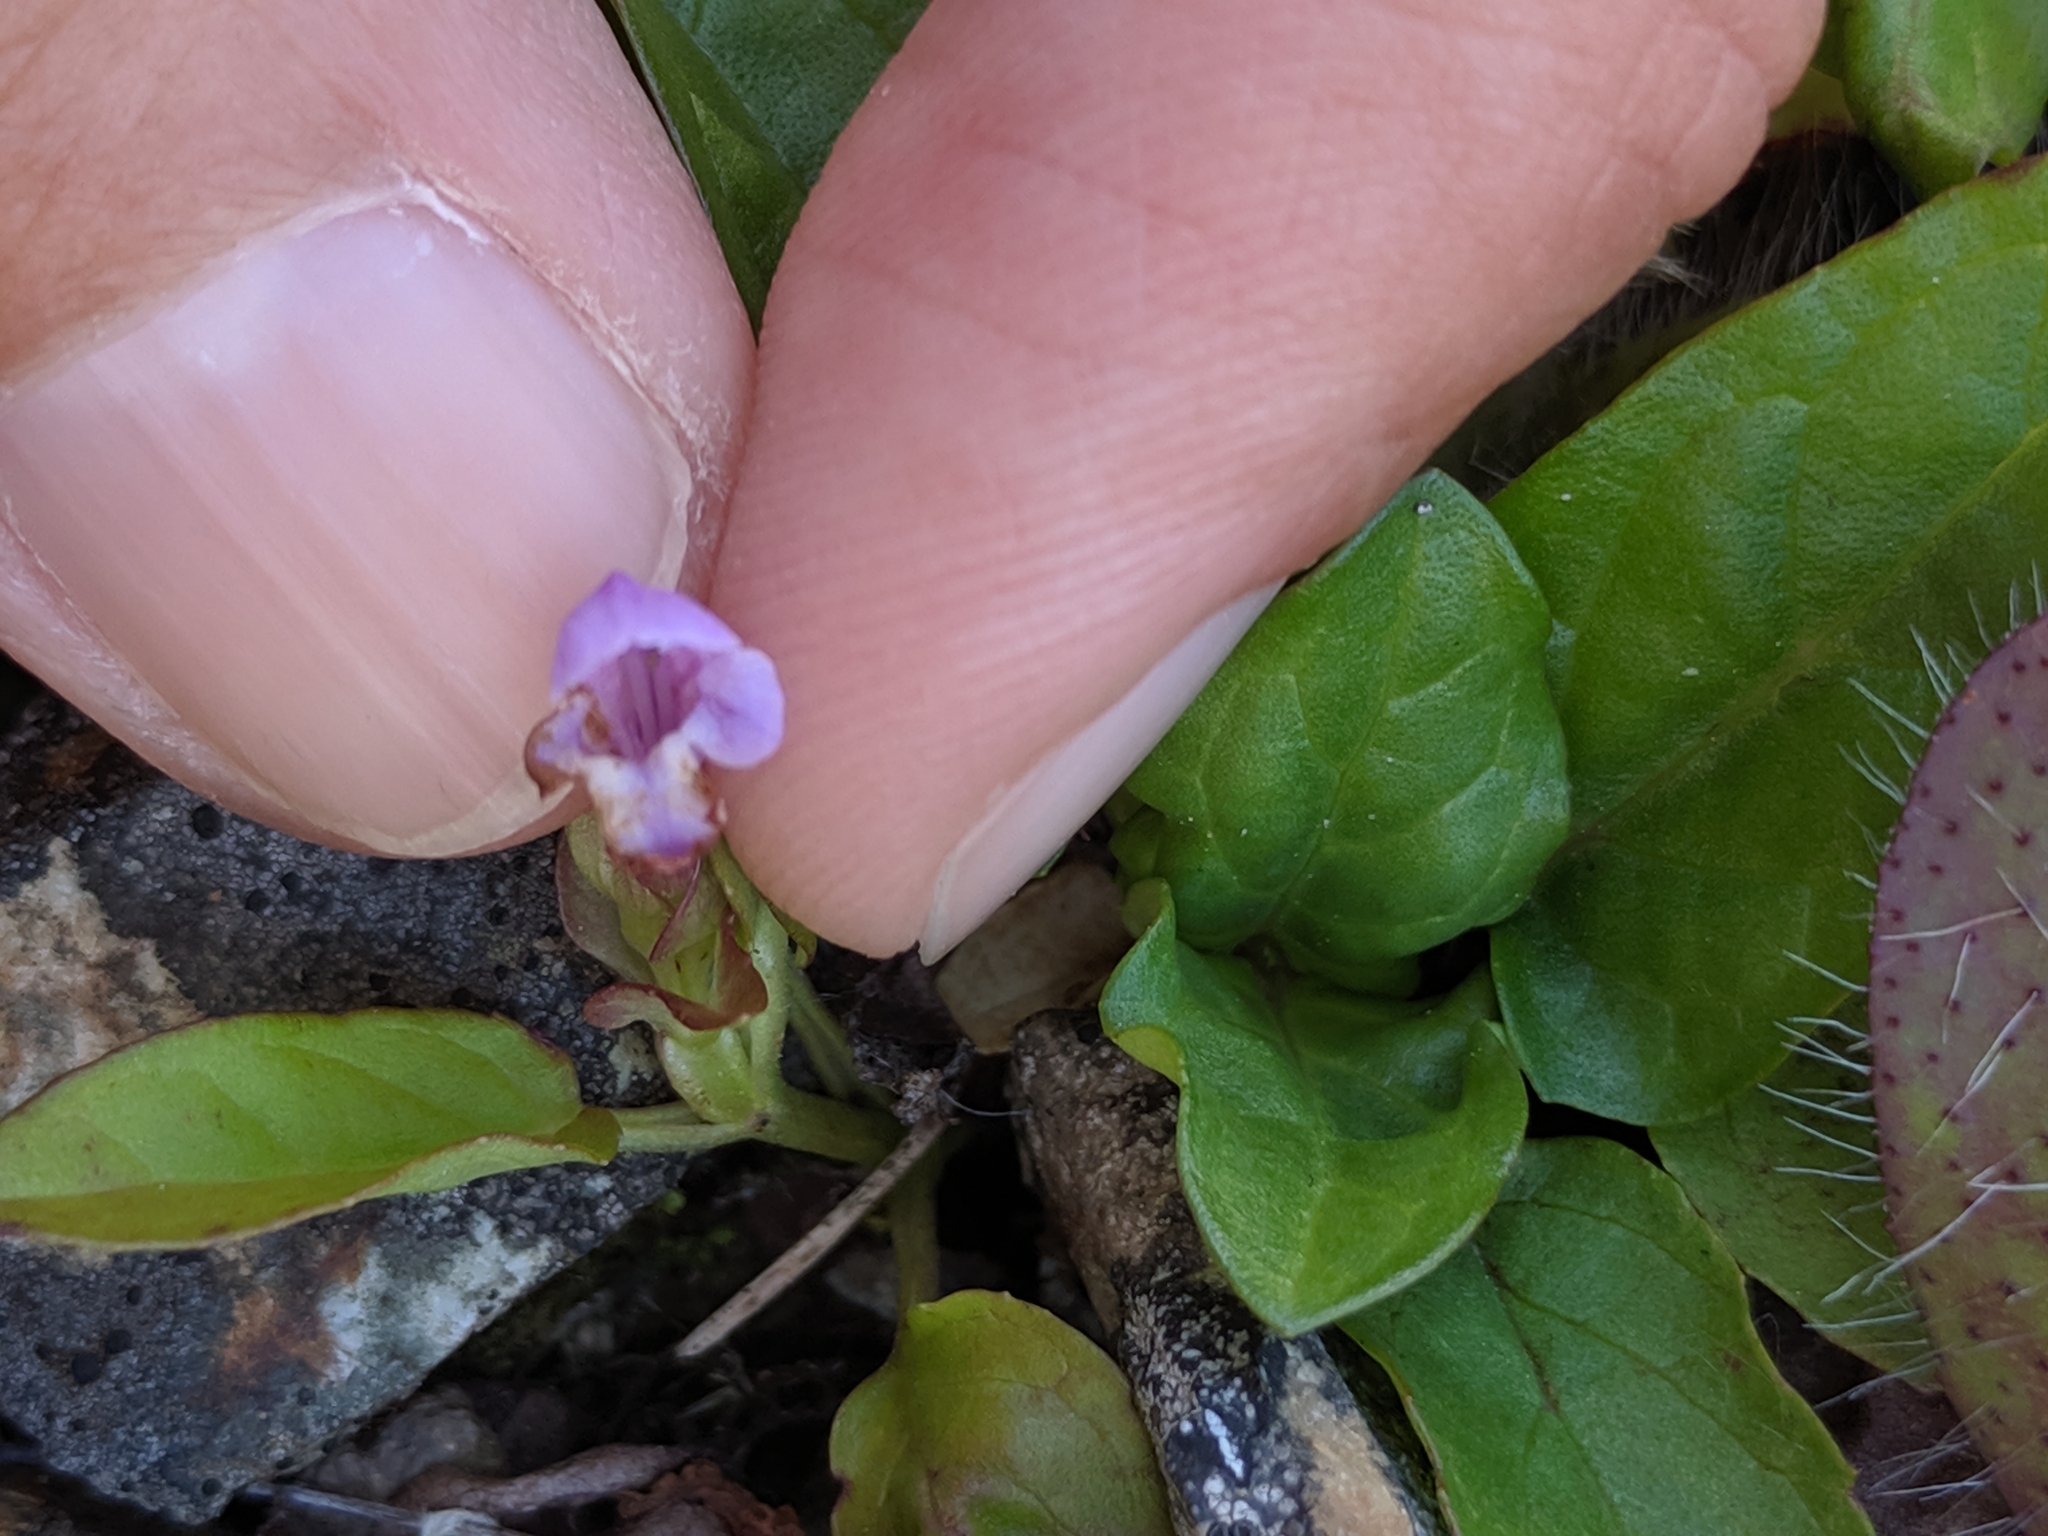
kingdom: Plantae
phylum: Tracheophyta
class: Magnoliopsida
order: Lamiales
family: Lamiaceae
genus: Prunella
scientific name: Prunella vulgaris
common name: Heal-all
